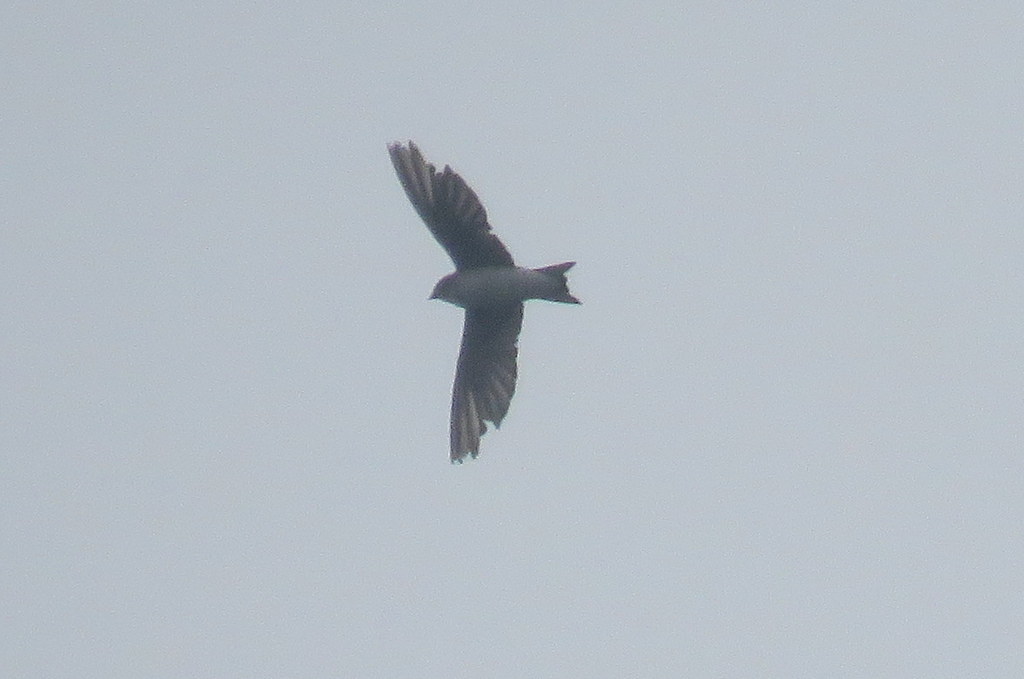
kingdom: Animalia
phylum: Chordata
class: Aves
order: Passeriformes
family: Hirundinidae
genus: Progne
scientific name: Progne chalybea
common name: Grey-breasted martin
